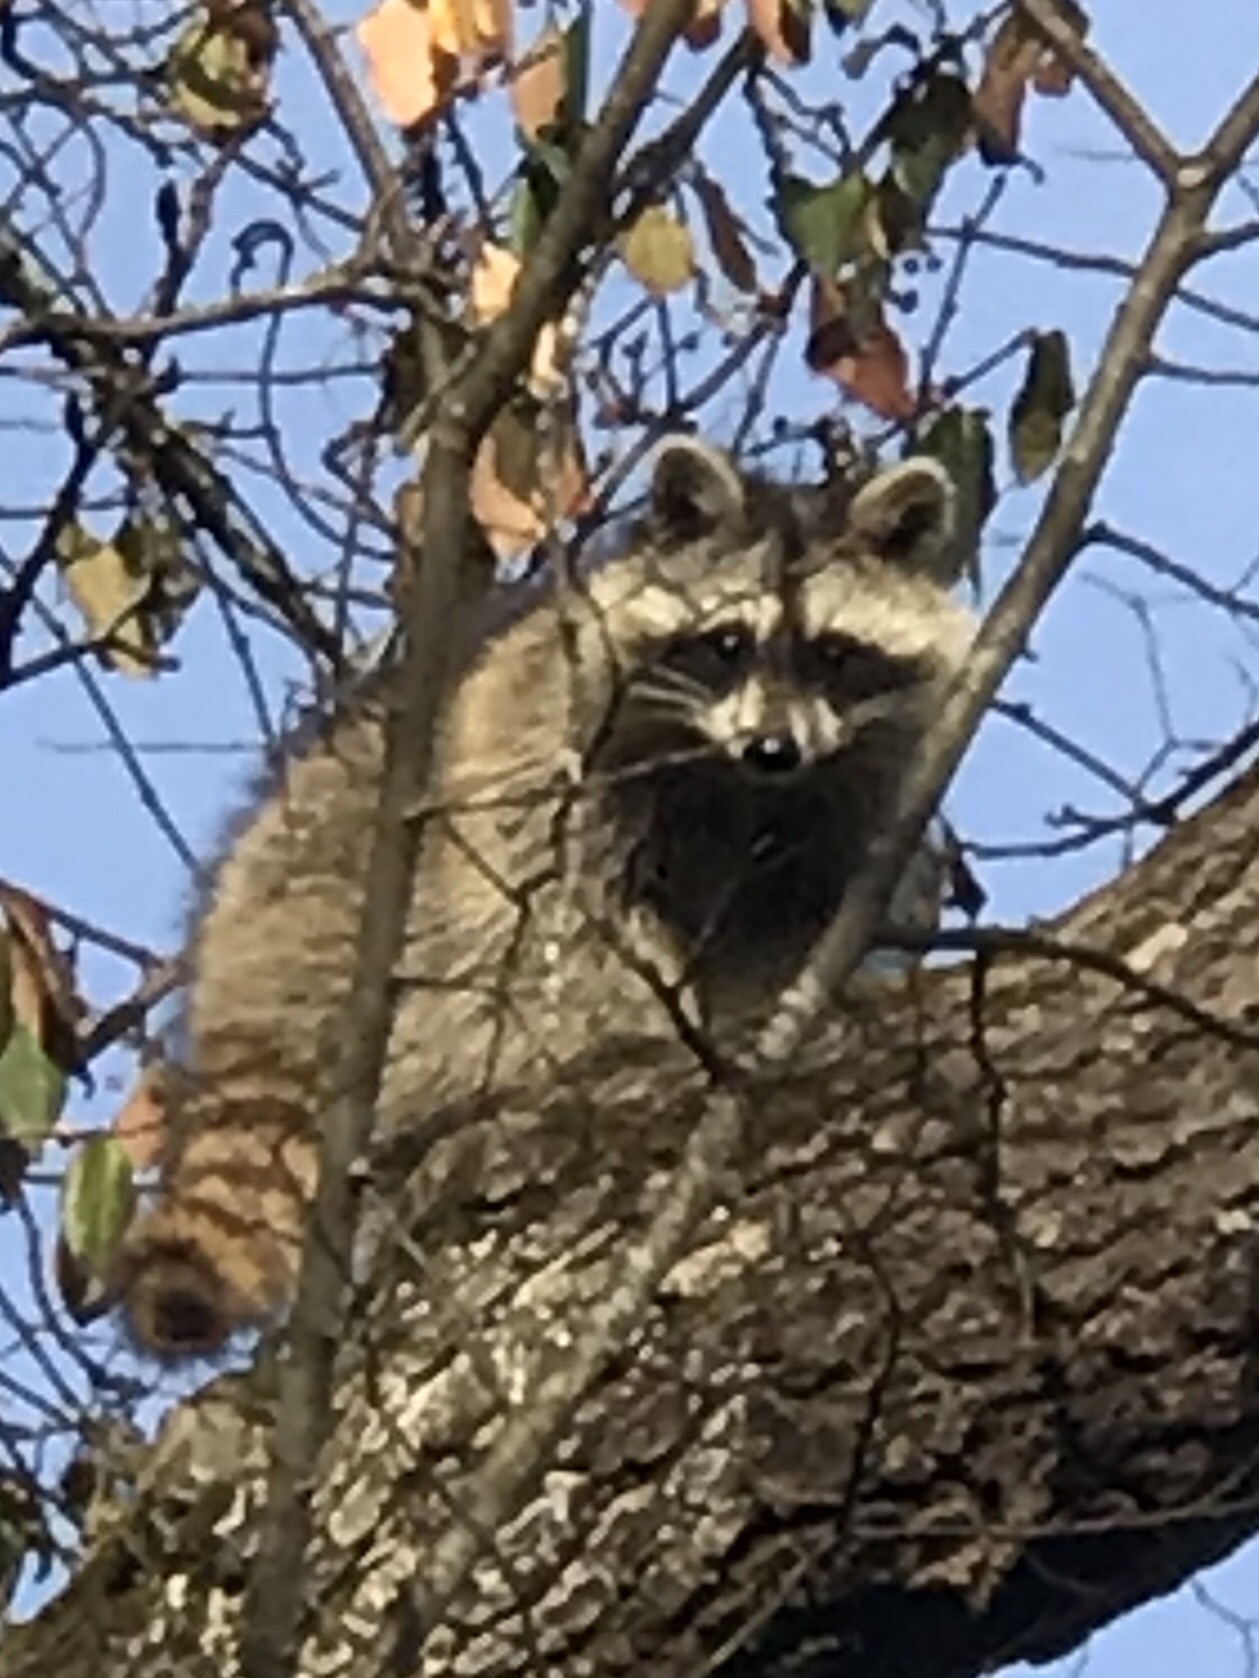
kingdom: Animalia
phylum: Chordata
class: Mammalia
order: Carnivora
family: Procyonidae
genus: Procyon
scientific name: Procyon lotor
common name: Raccoon
